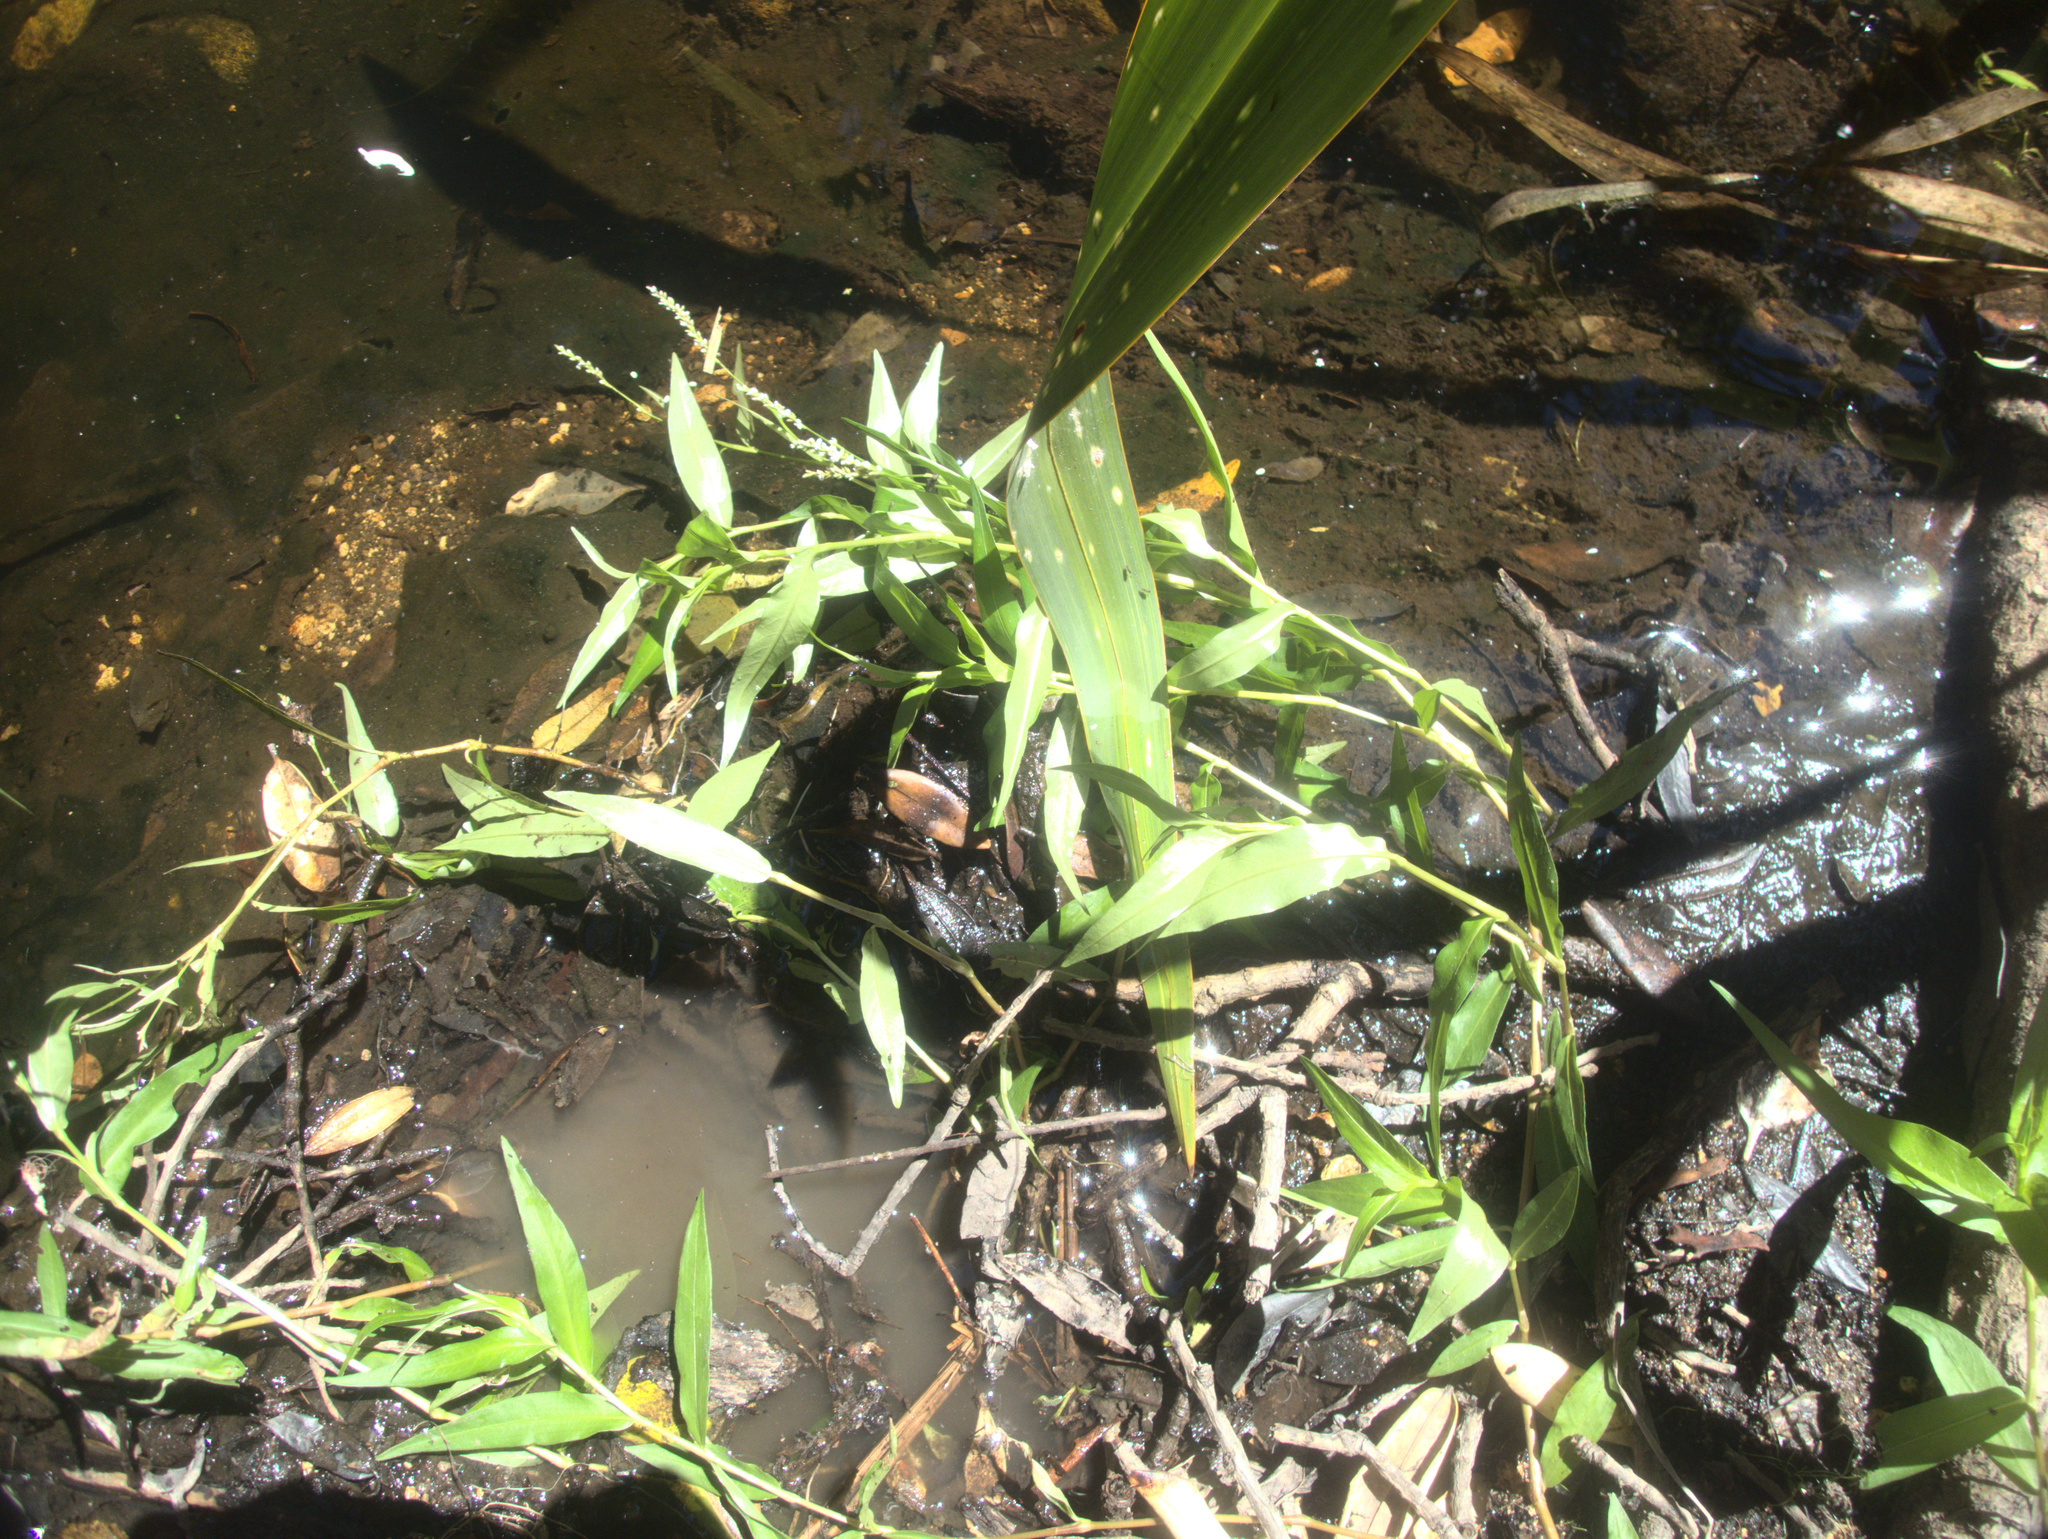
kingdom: Plantae
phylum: Tracheophyta
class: Magnoliopsida
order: Caryophyllales
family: Polygonaceae
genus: Persicaria
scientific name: Persicaria decipiens
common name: Willow-weed
